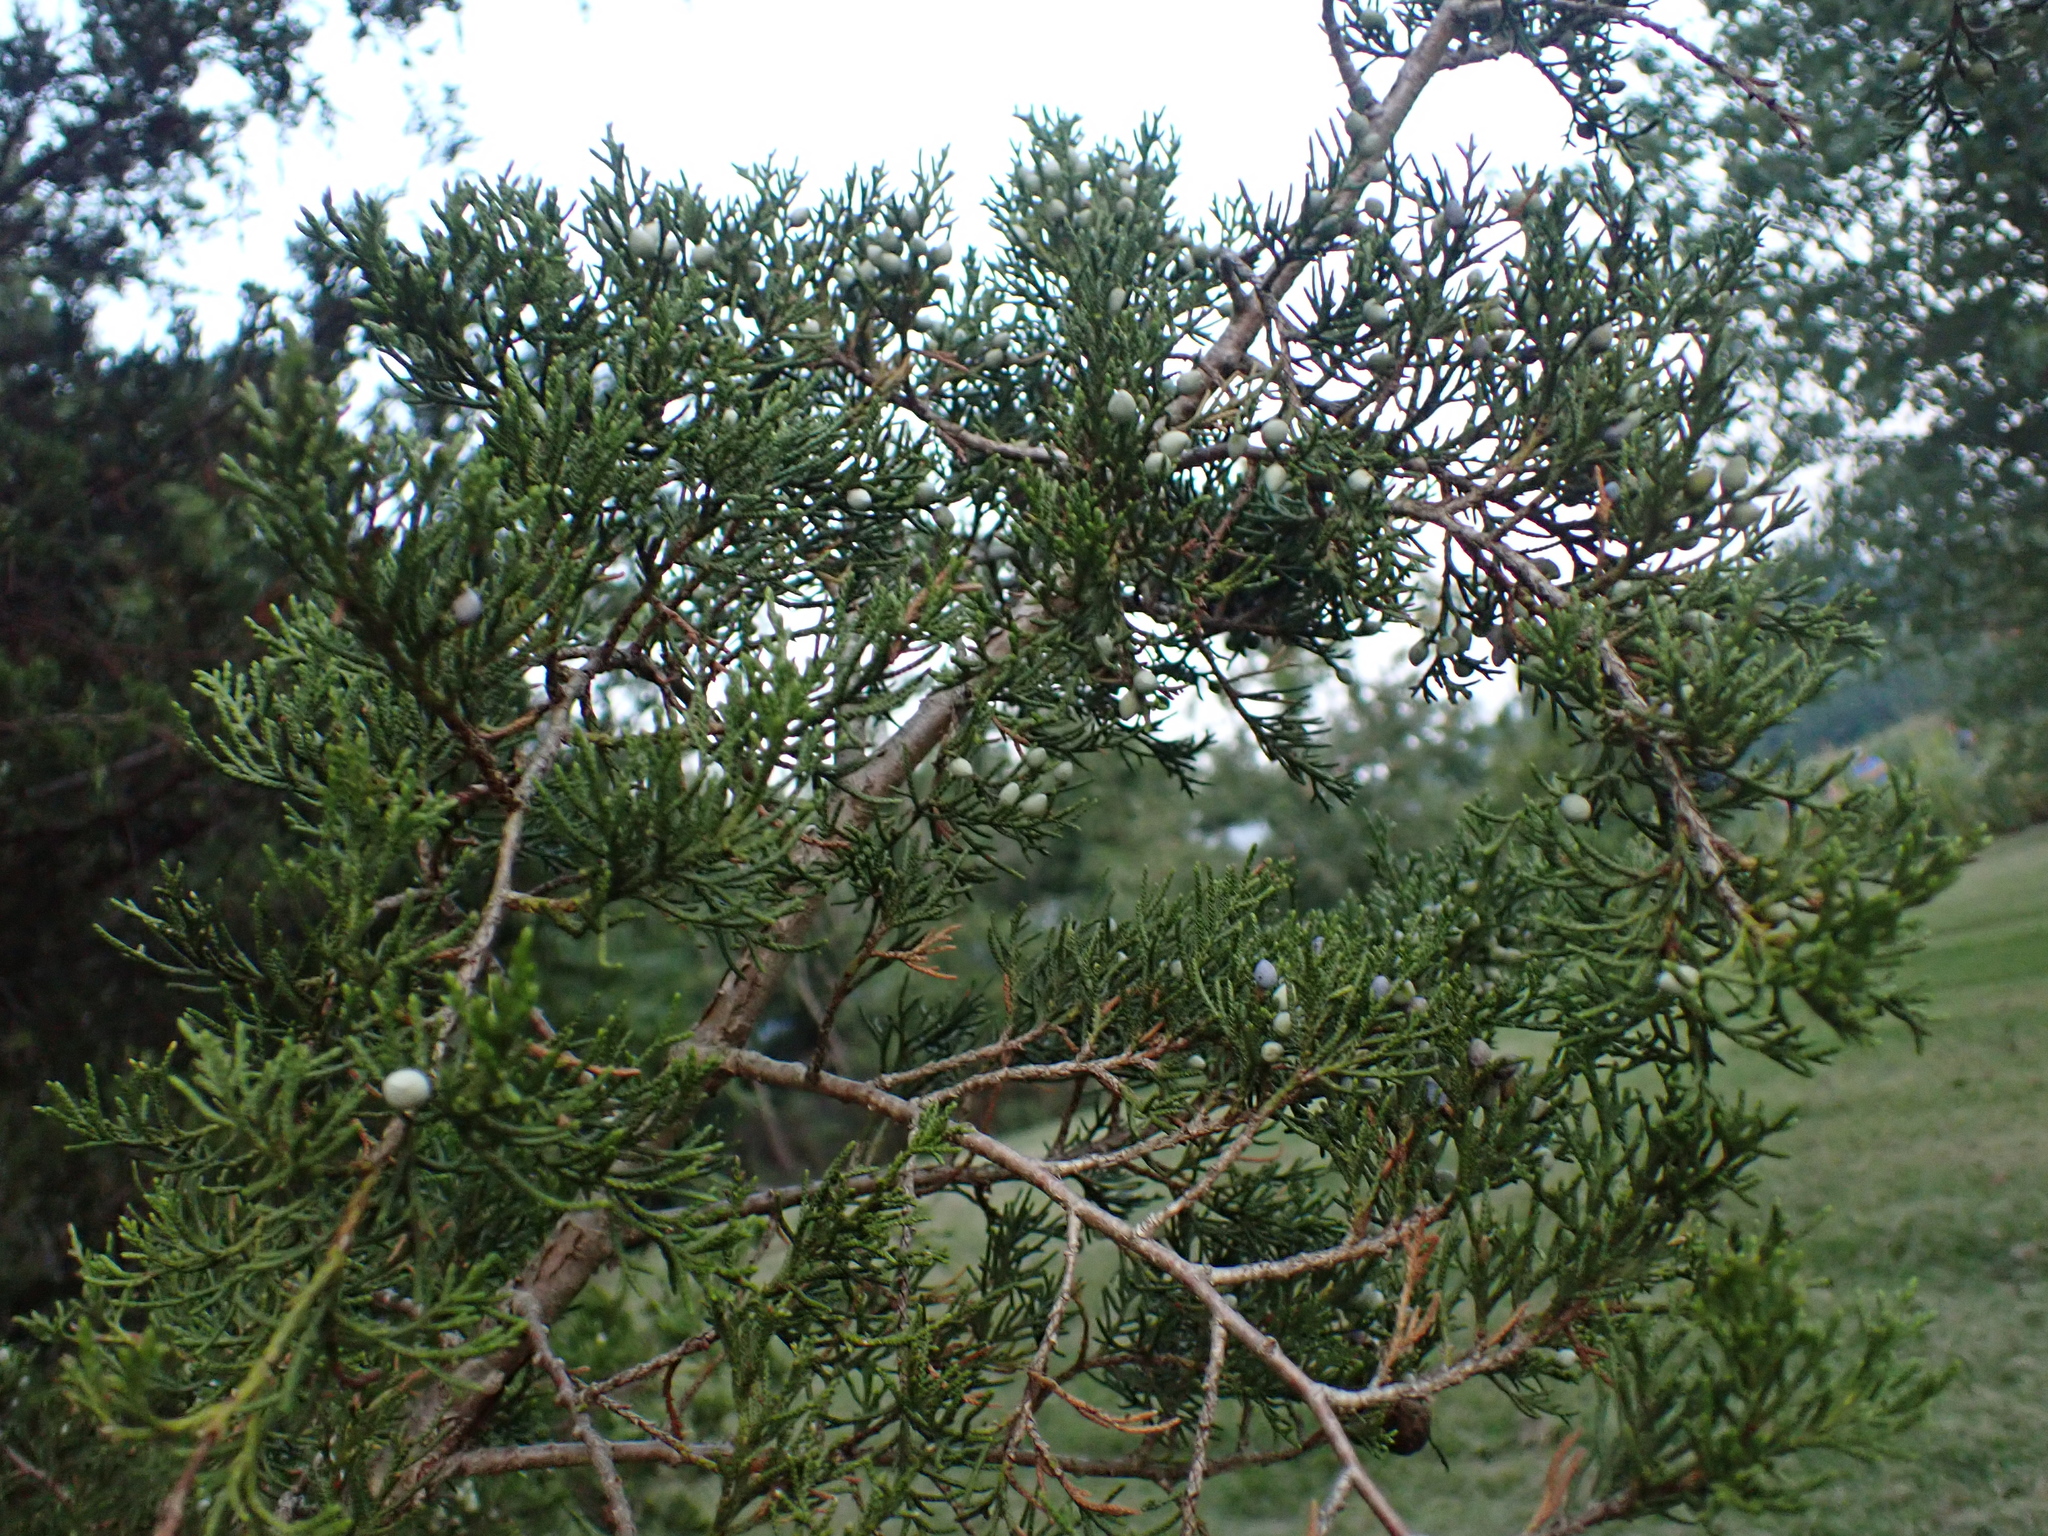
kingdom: Plantae
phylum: Tracheophyta
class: Pinopsida
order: Pinales
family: Cupressaceae
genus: Juniperus
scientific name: Juniperus virginiana
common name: Red juniper
